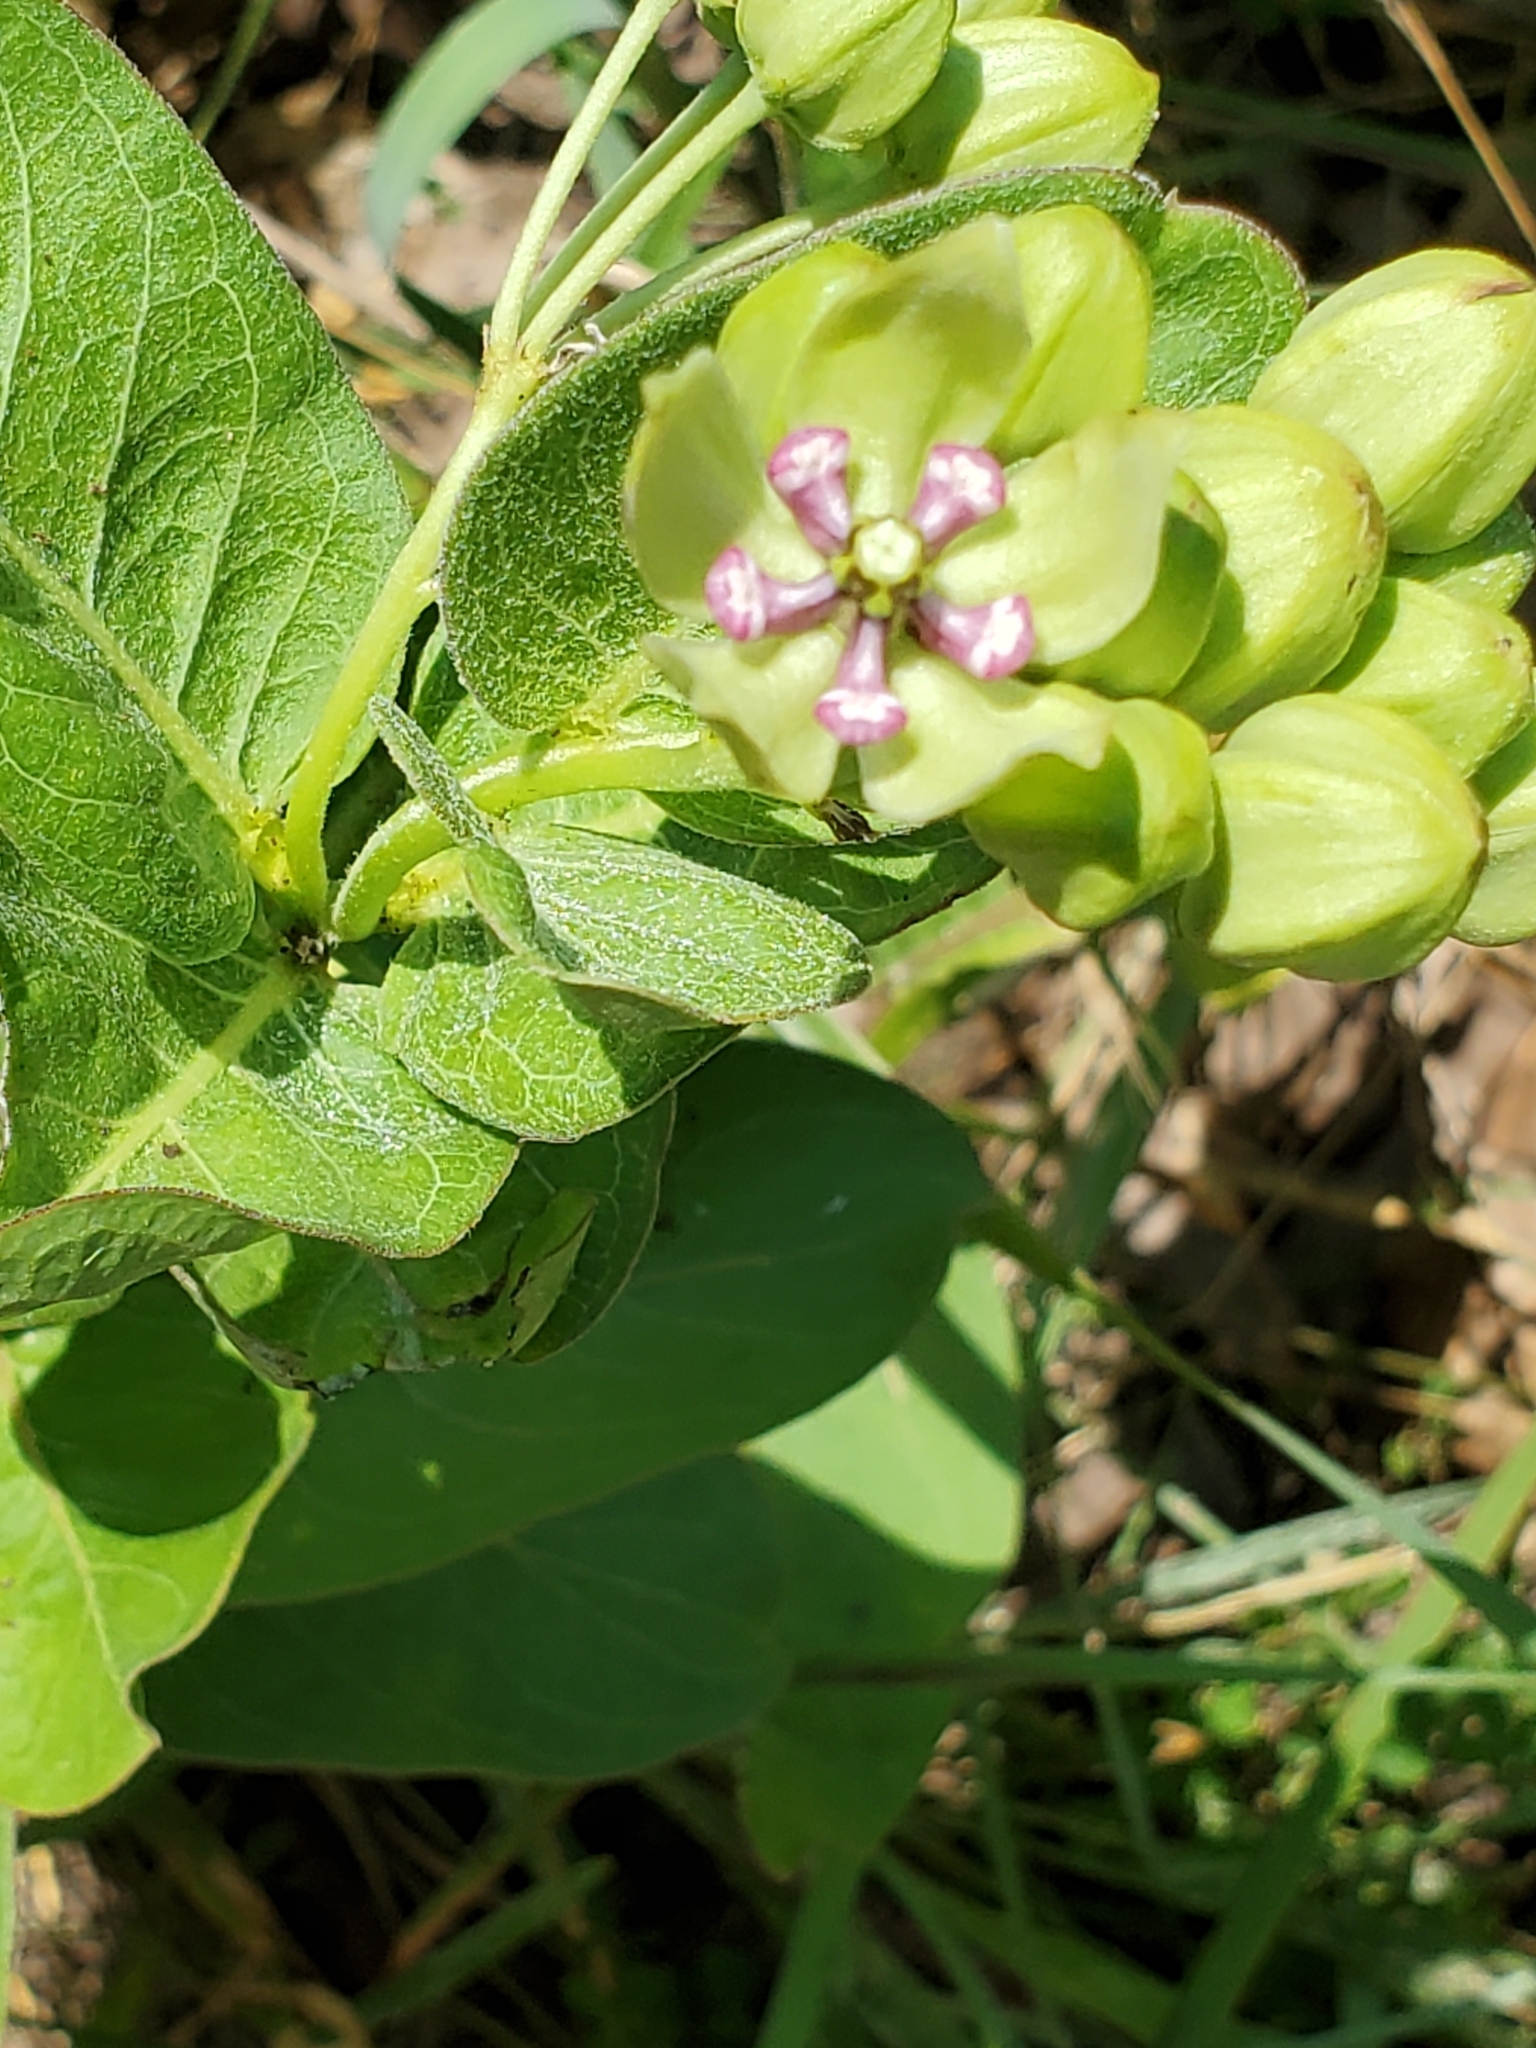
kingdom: Plantae
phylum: Tracheophyta
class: Magnoliopsida
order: Gentianales
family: Apocynaceae
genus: Asclepias
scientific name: Asclepias viridis
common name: Antelope-horns
